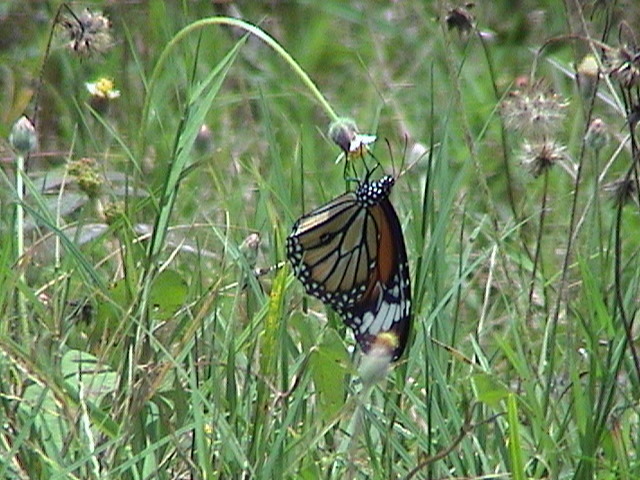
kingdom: Animalia
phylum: Arthropoda
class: Insecta
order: Lepidoptera
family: Nymphalidae
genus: Danaus
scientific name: Danaus genutia
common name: Common tiger butterfly
